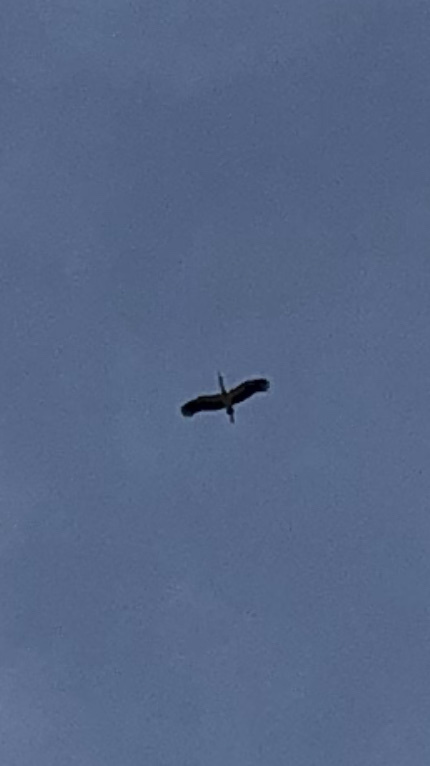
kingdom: Animalia
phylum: Chordata
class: Aves
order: Ciconiiformes
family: Ciconiidae
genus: Ciconia
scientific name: Ciconia ciconia
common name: White stork
